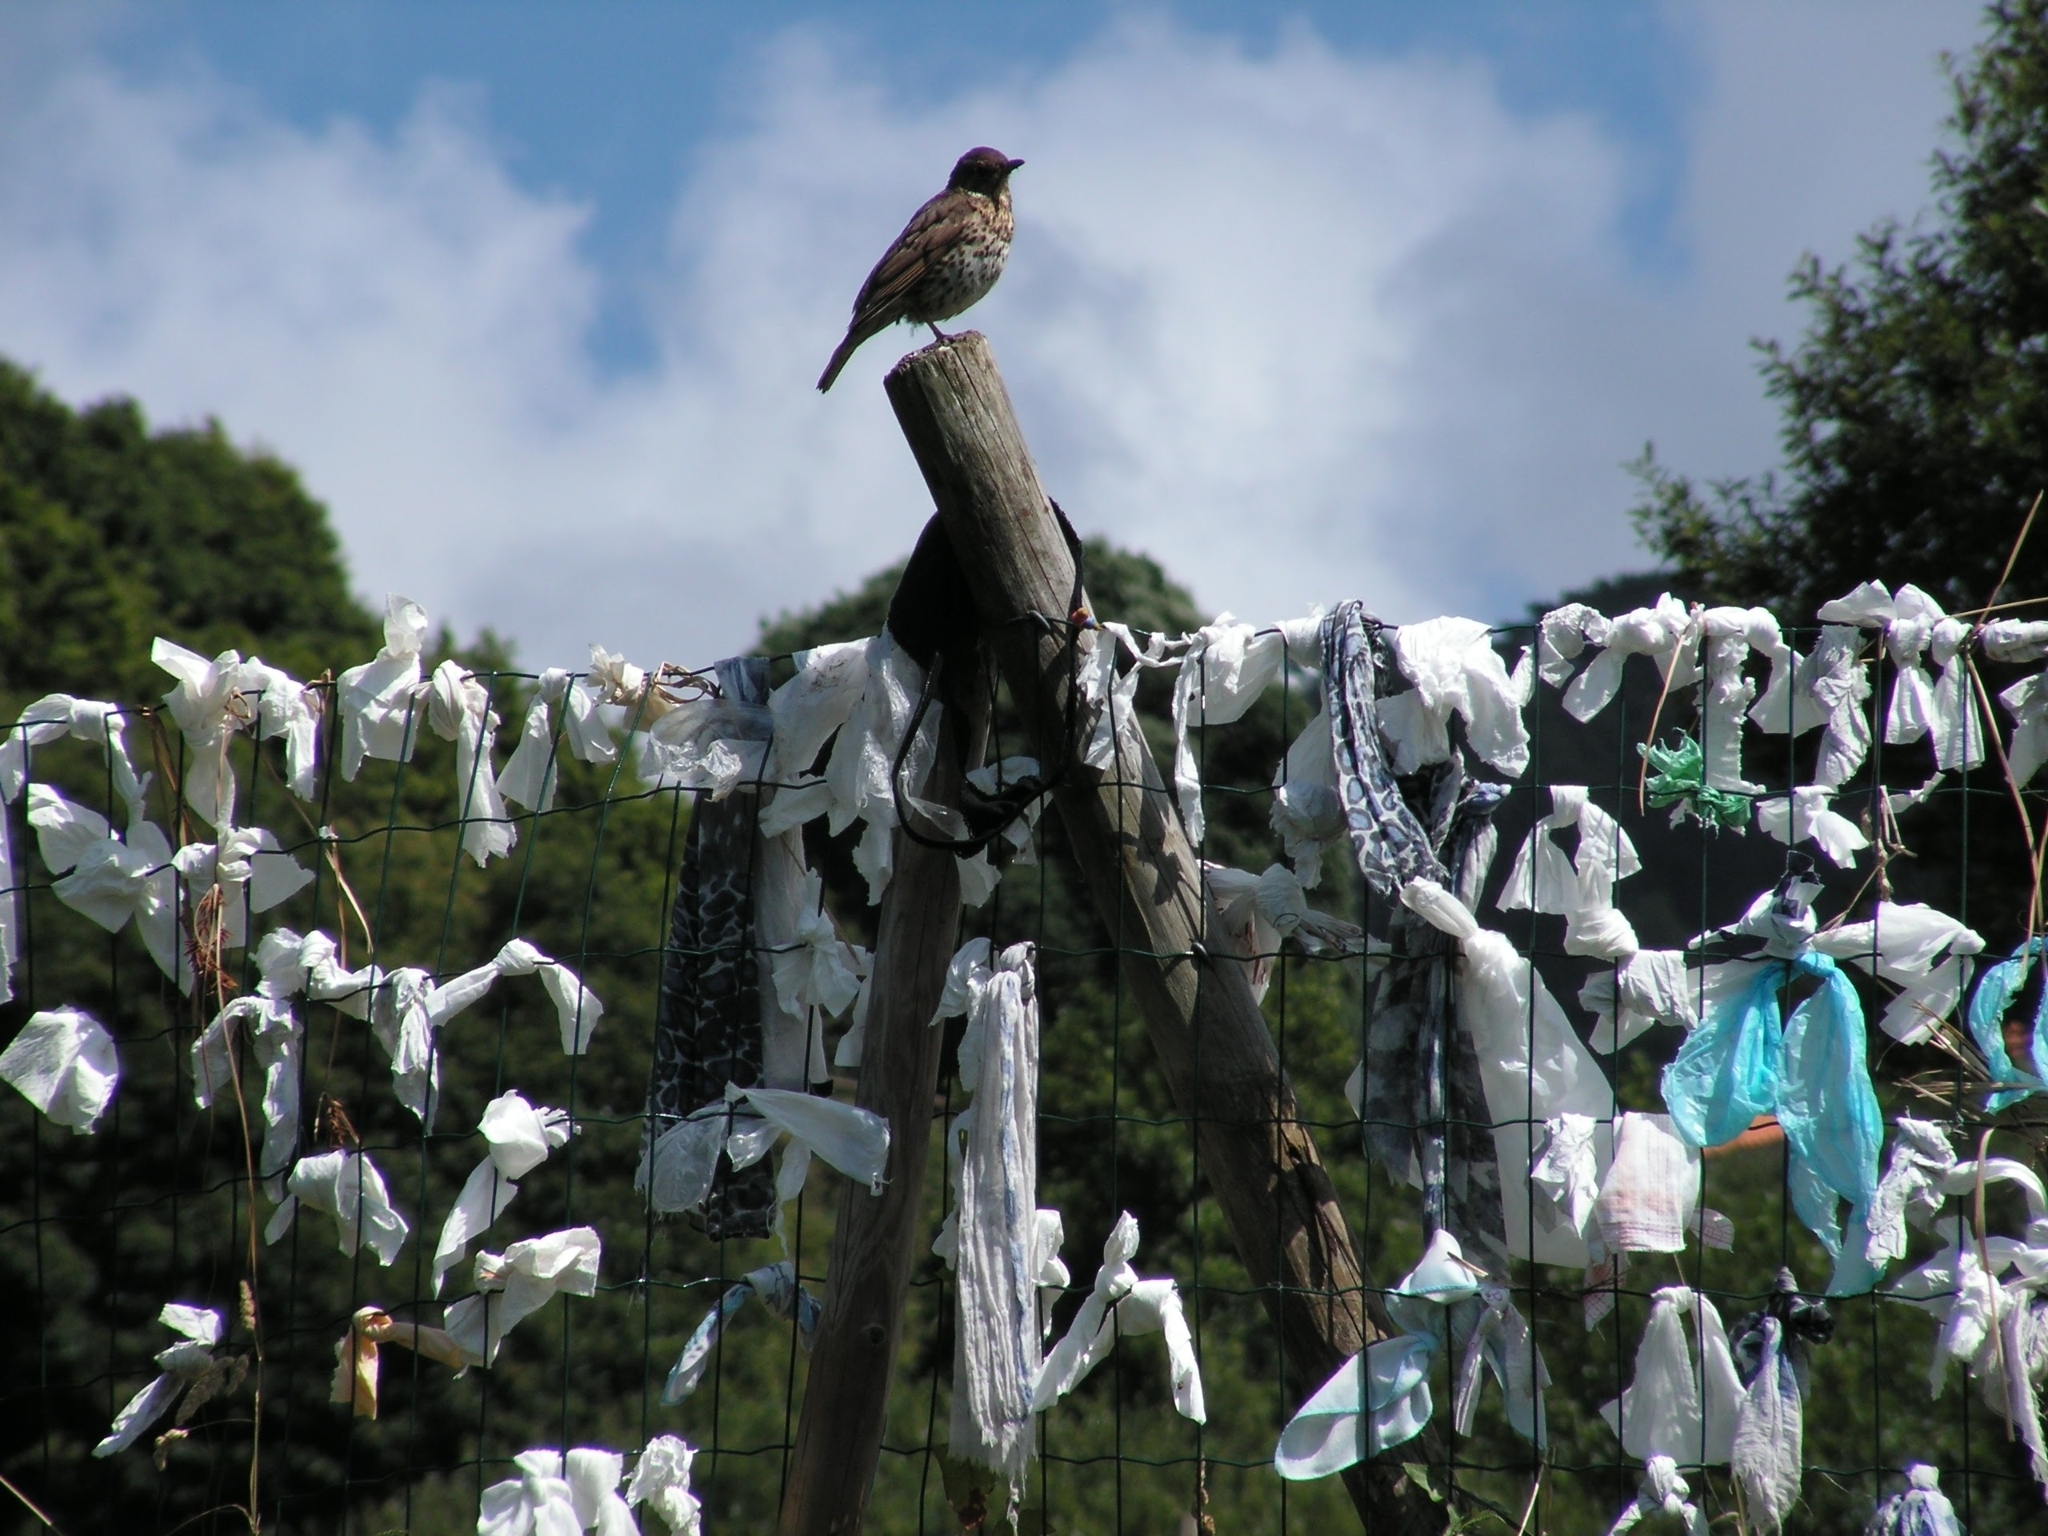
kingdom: Animalia
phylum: Chordata
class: Aves
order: Passeriformes
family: Turdidae
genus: Turdus
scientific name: Turdus philomelos
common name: Song thrush
